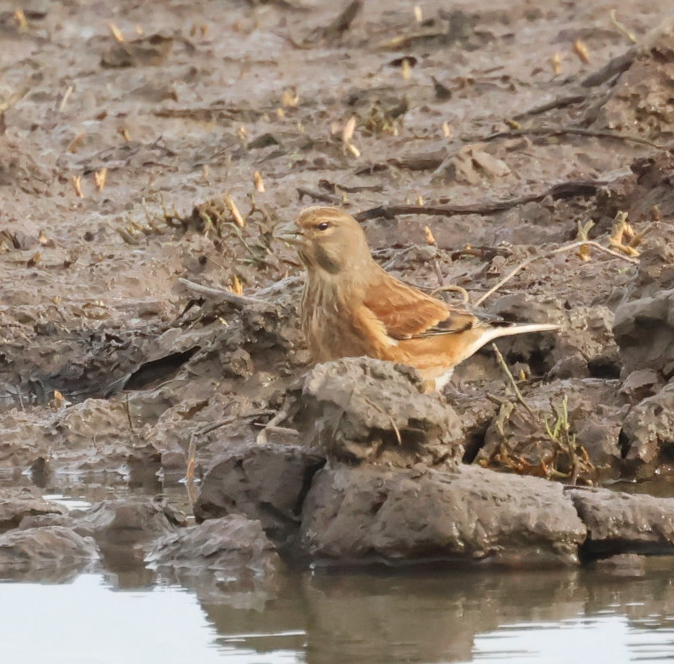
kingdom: Animalia
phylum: Chordata
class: Aves
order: Passeriformes
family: Fringillidae
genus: Linaria
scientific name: Linaria cannabina
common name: Common linnet
